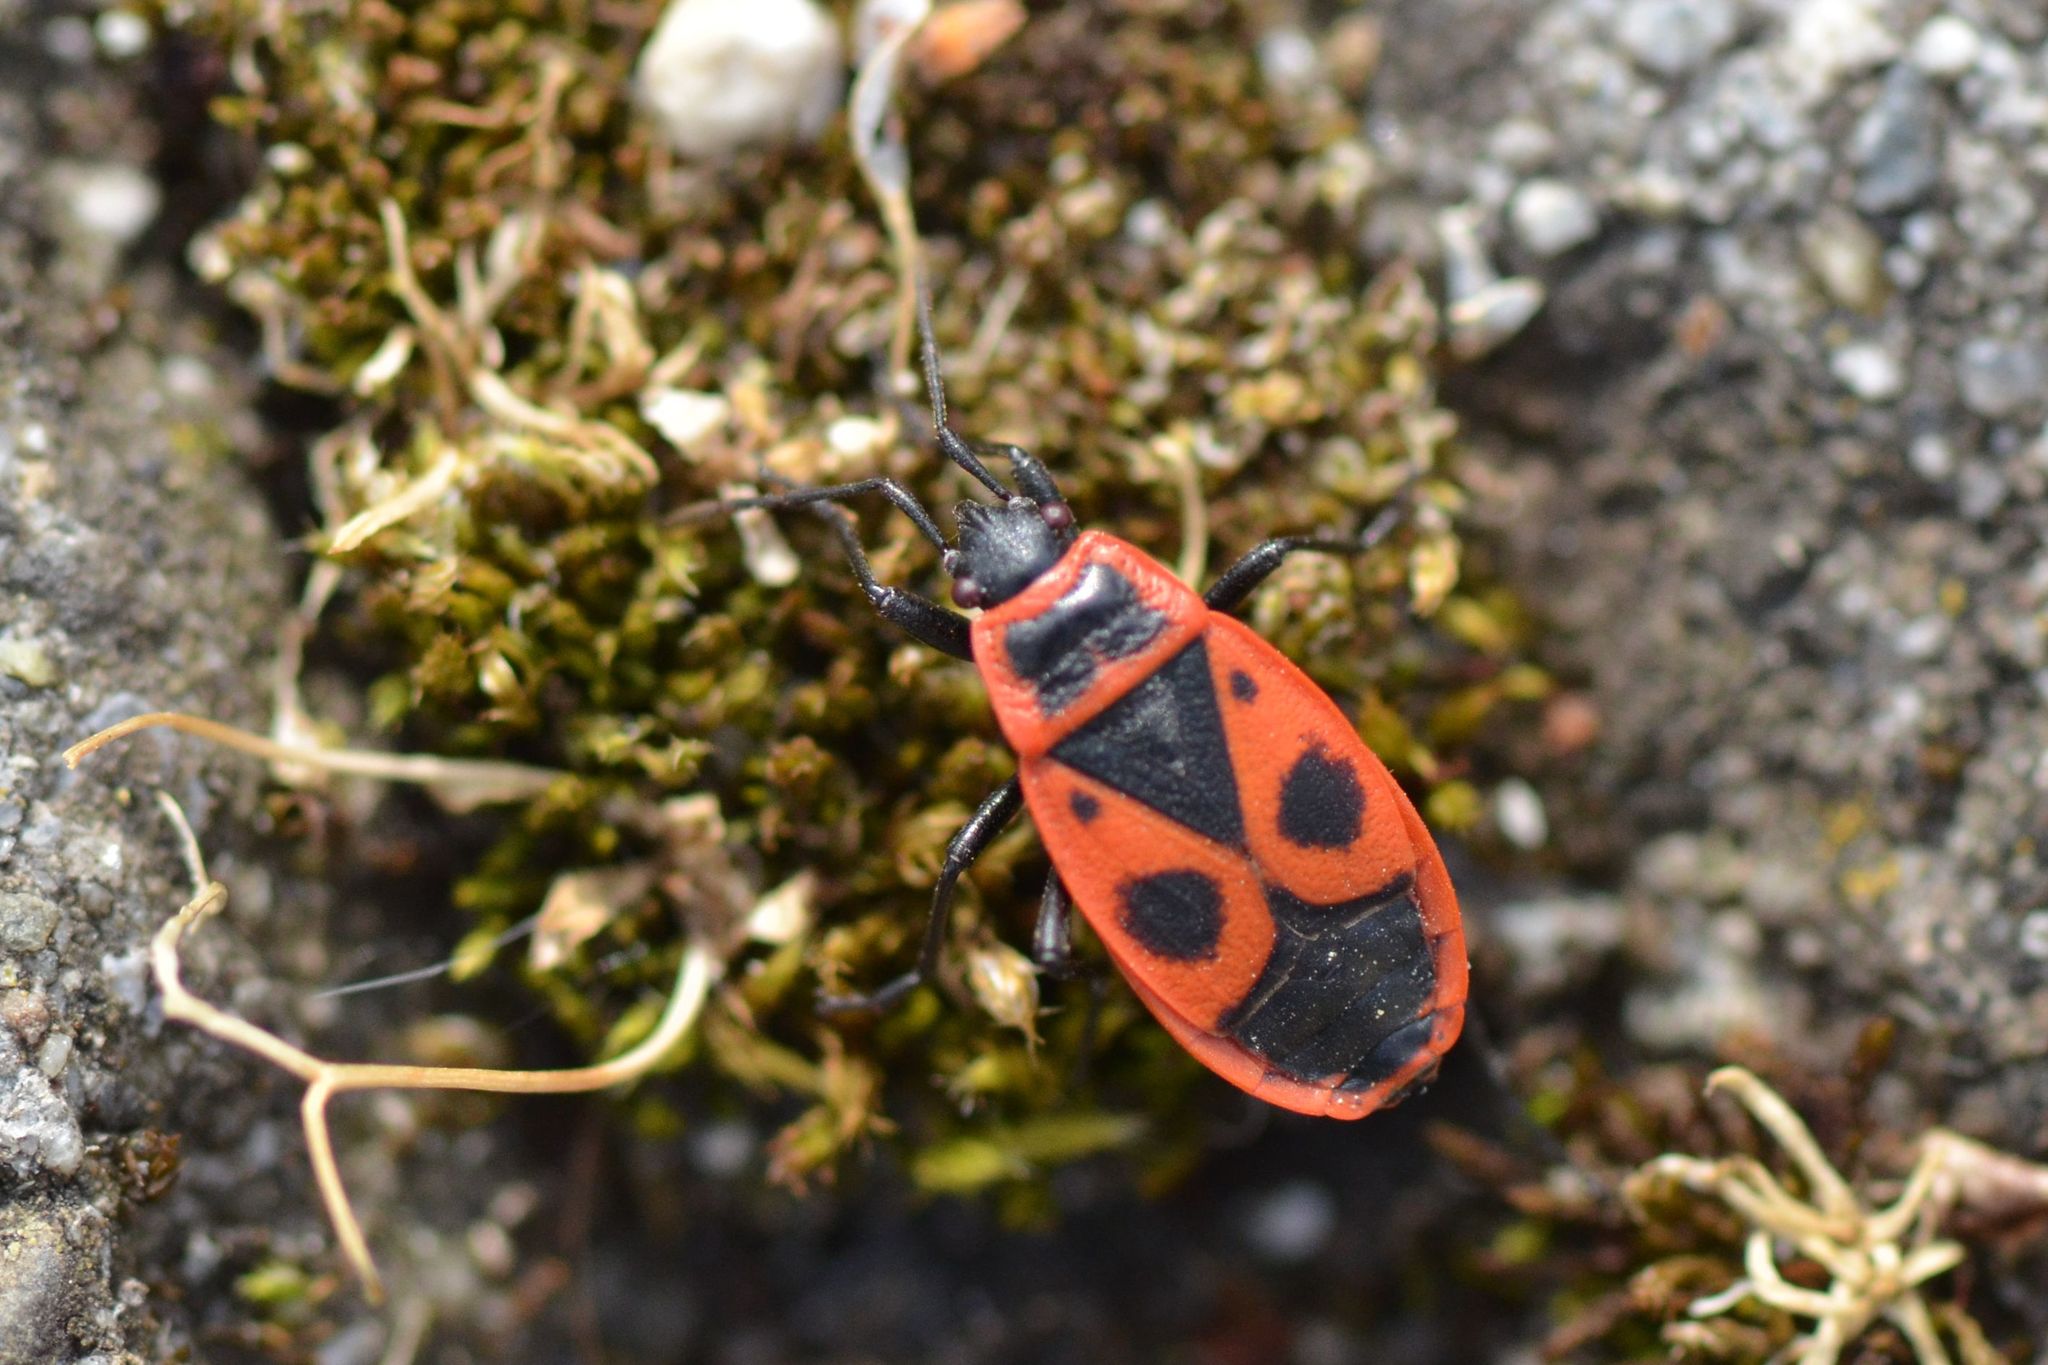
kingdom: Animalia
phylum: Arthropoda
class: Insecta
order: Hemiptera
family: Pyrrhocoridae
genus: Pyrrhocoris
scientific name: Pyrrhocoris apterus
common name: Firebug
